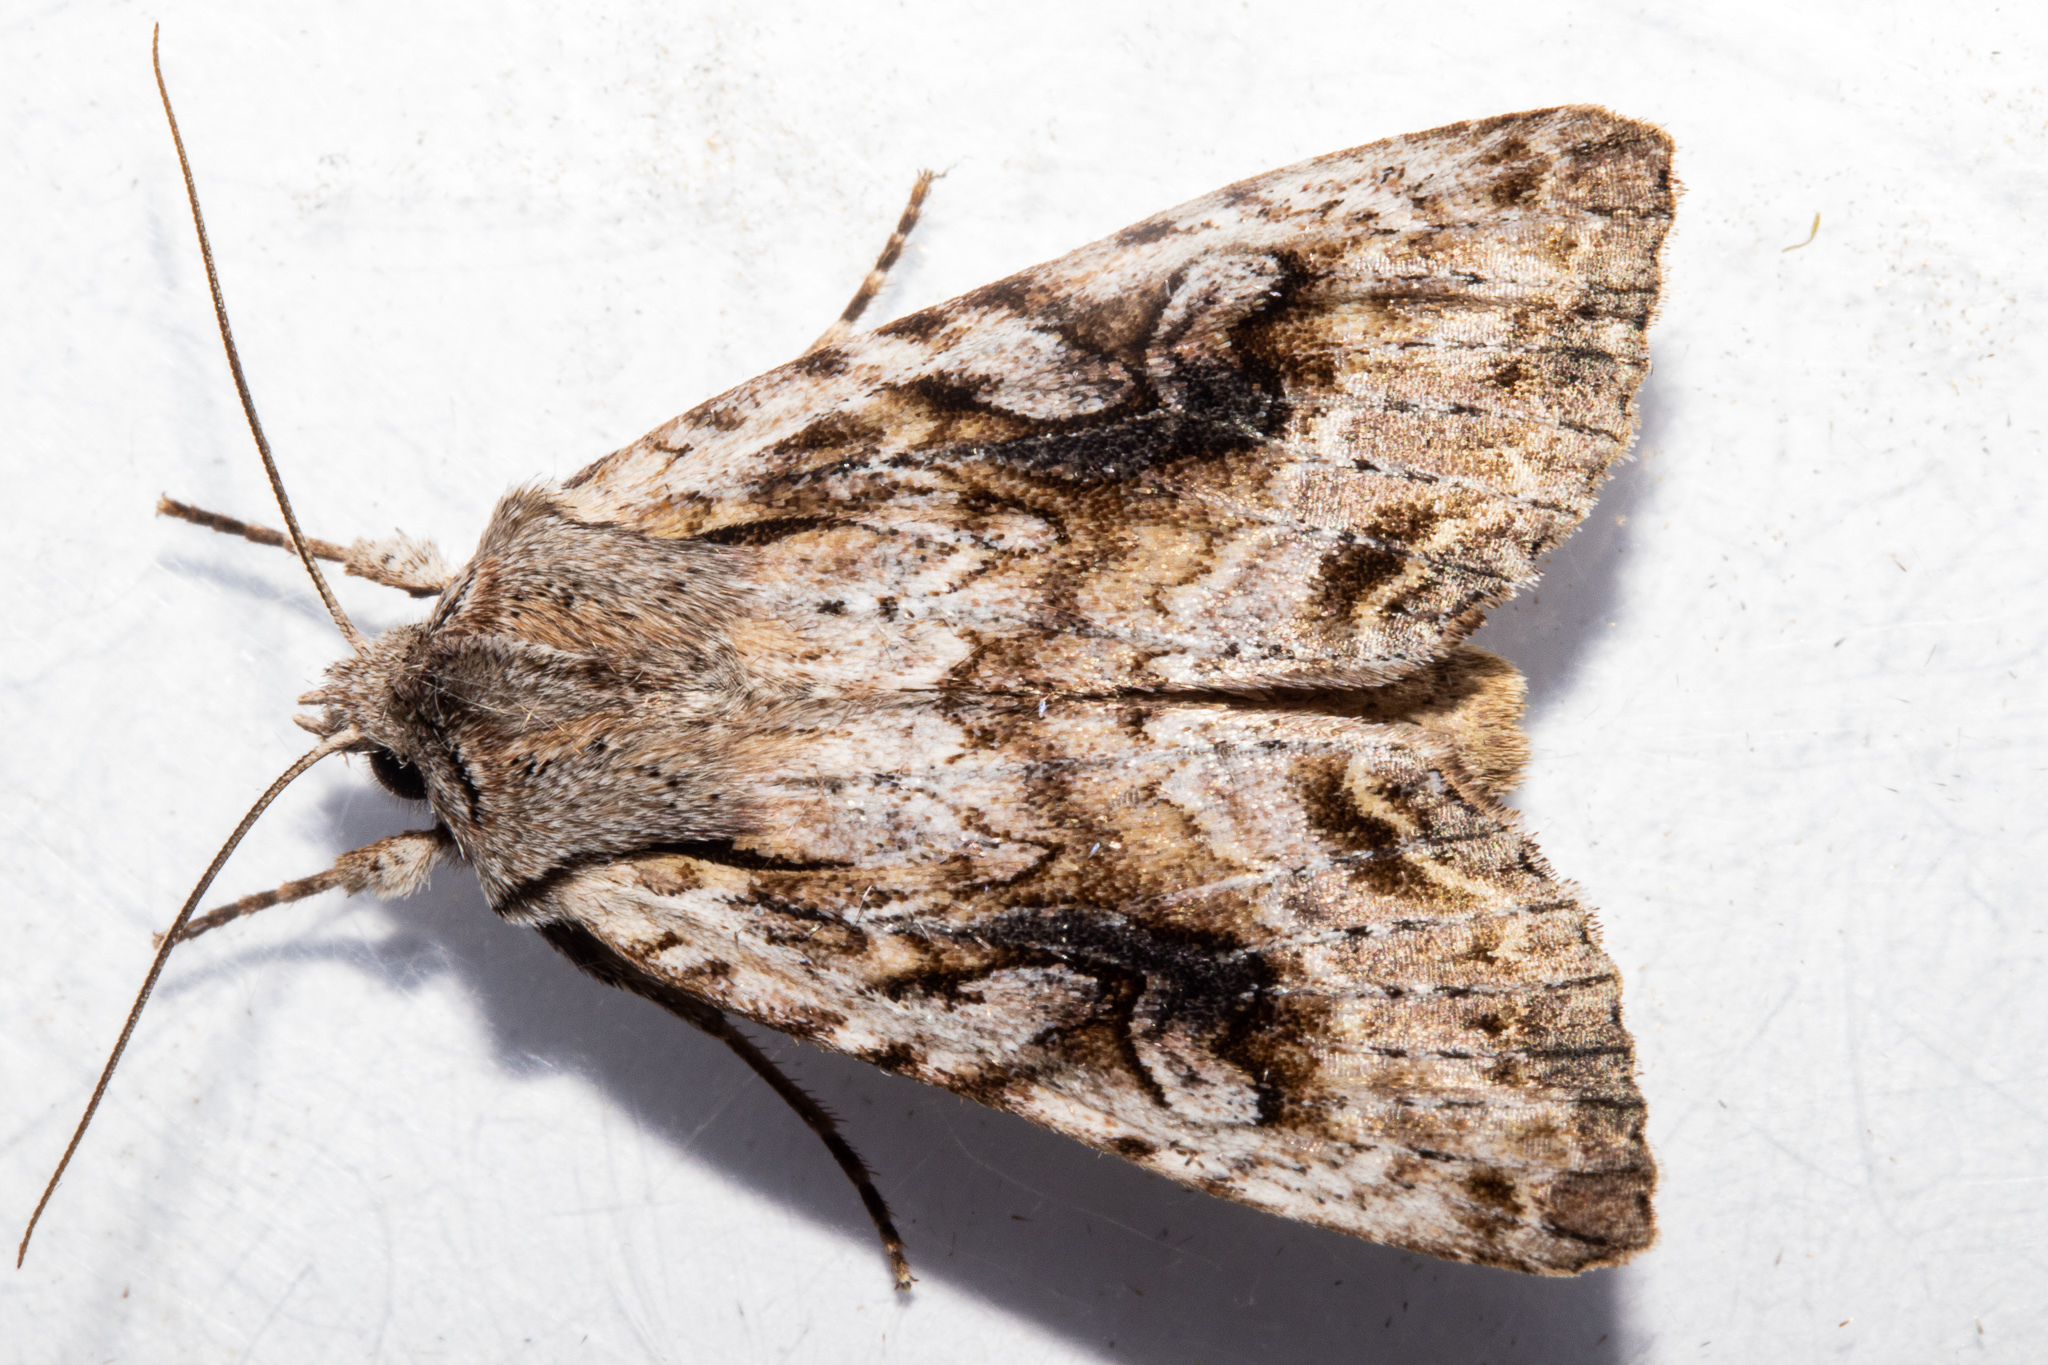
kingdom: Animalia
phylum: Arthropoda
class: Insecta
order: Lepidoptera
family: Noctuidae
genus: Ichneutica
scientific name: Ichneutica lindsayorum
